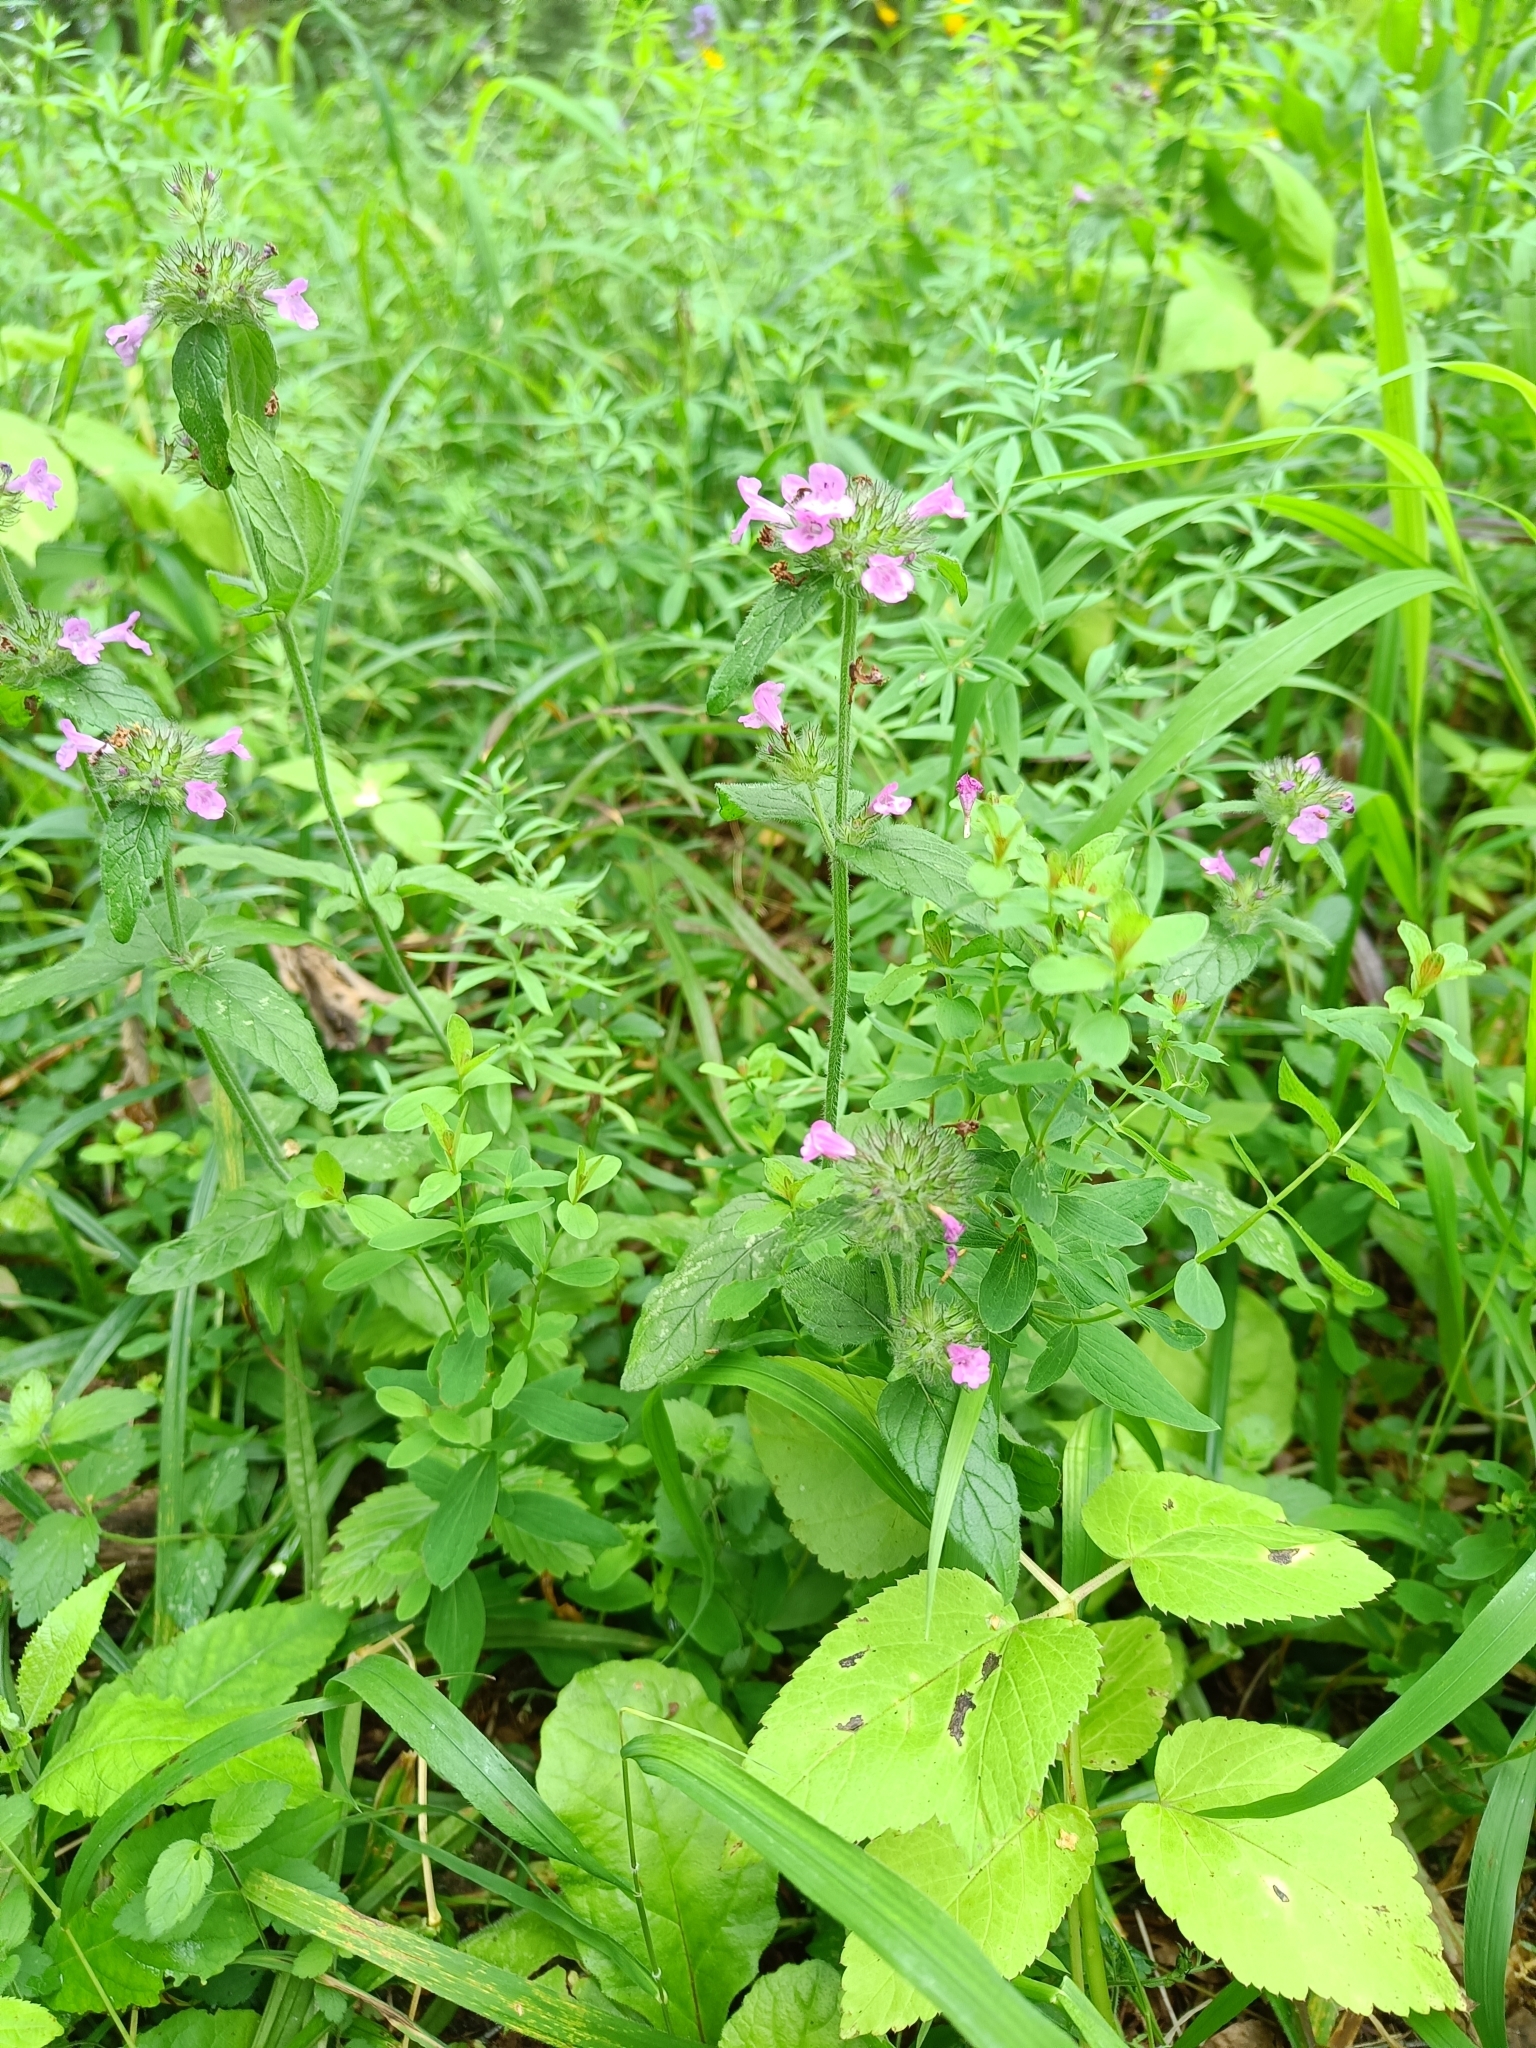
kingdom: Plantae
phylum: Tracheophyta
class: Magnoliopsida
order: Lamiales
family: Lamiaceae
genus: Clinopodium
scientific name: Clinopodium vulgare
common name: Wild basil
